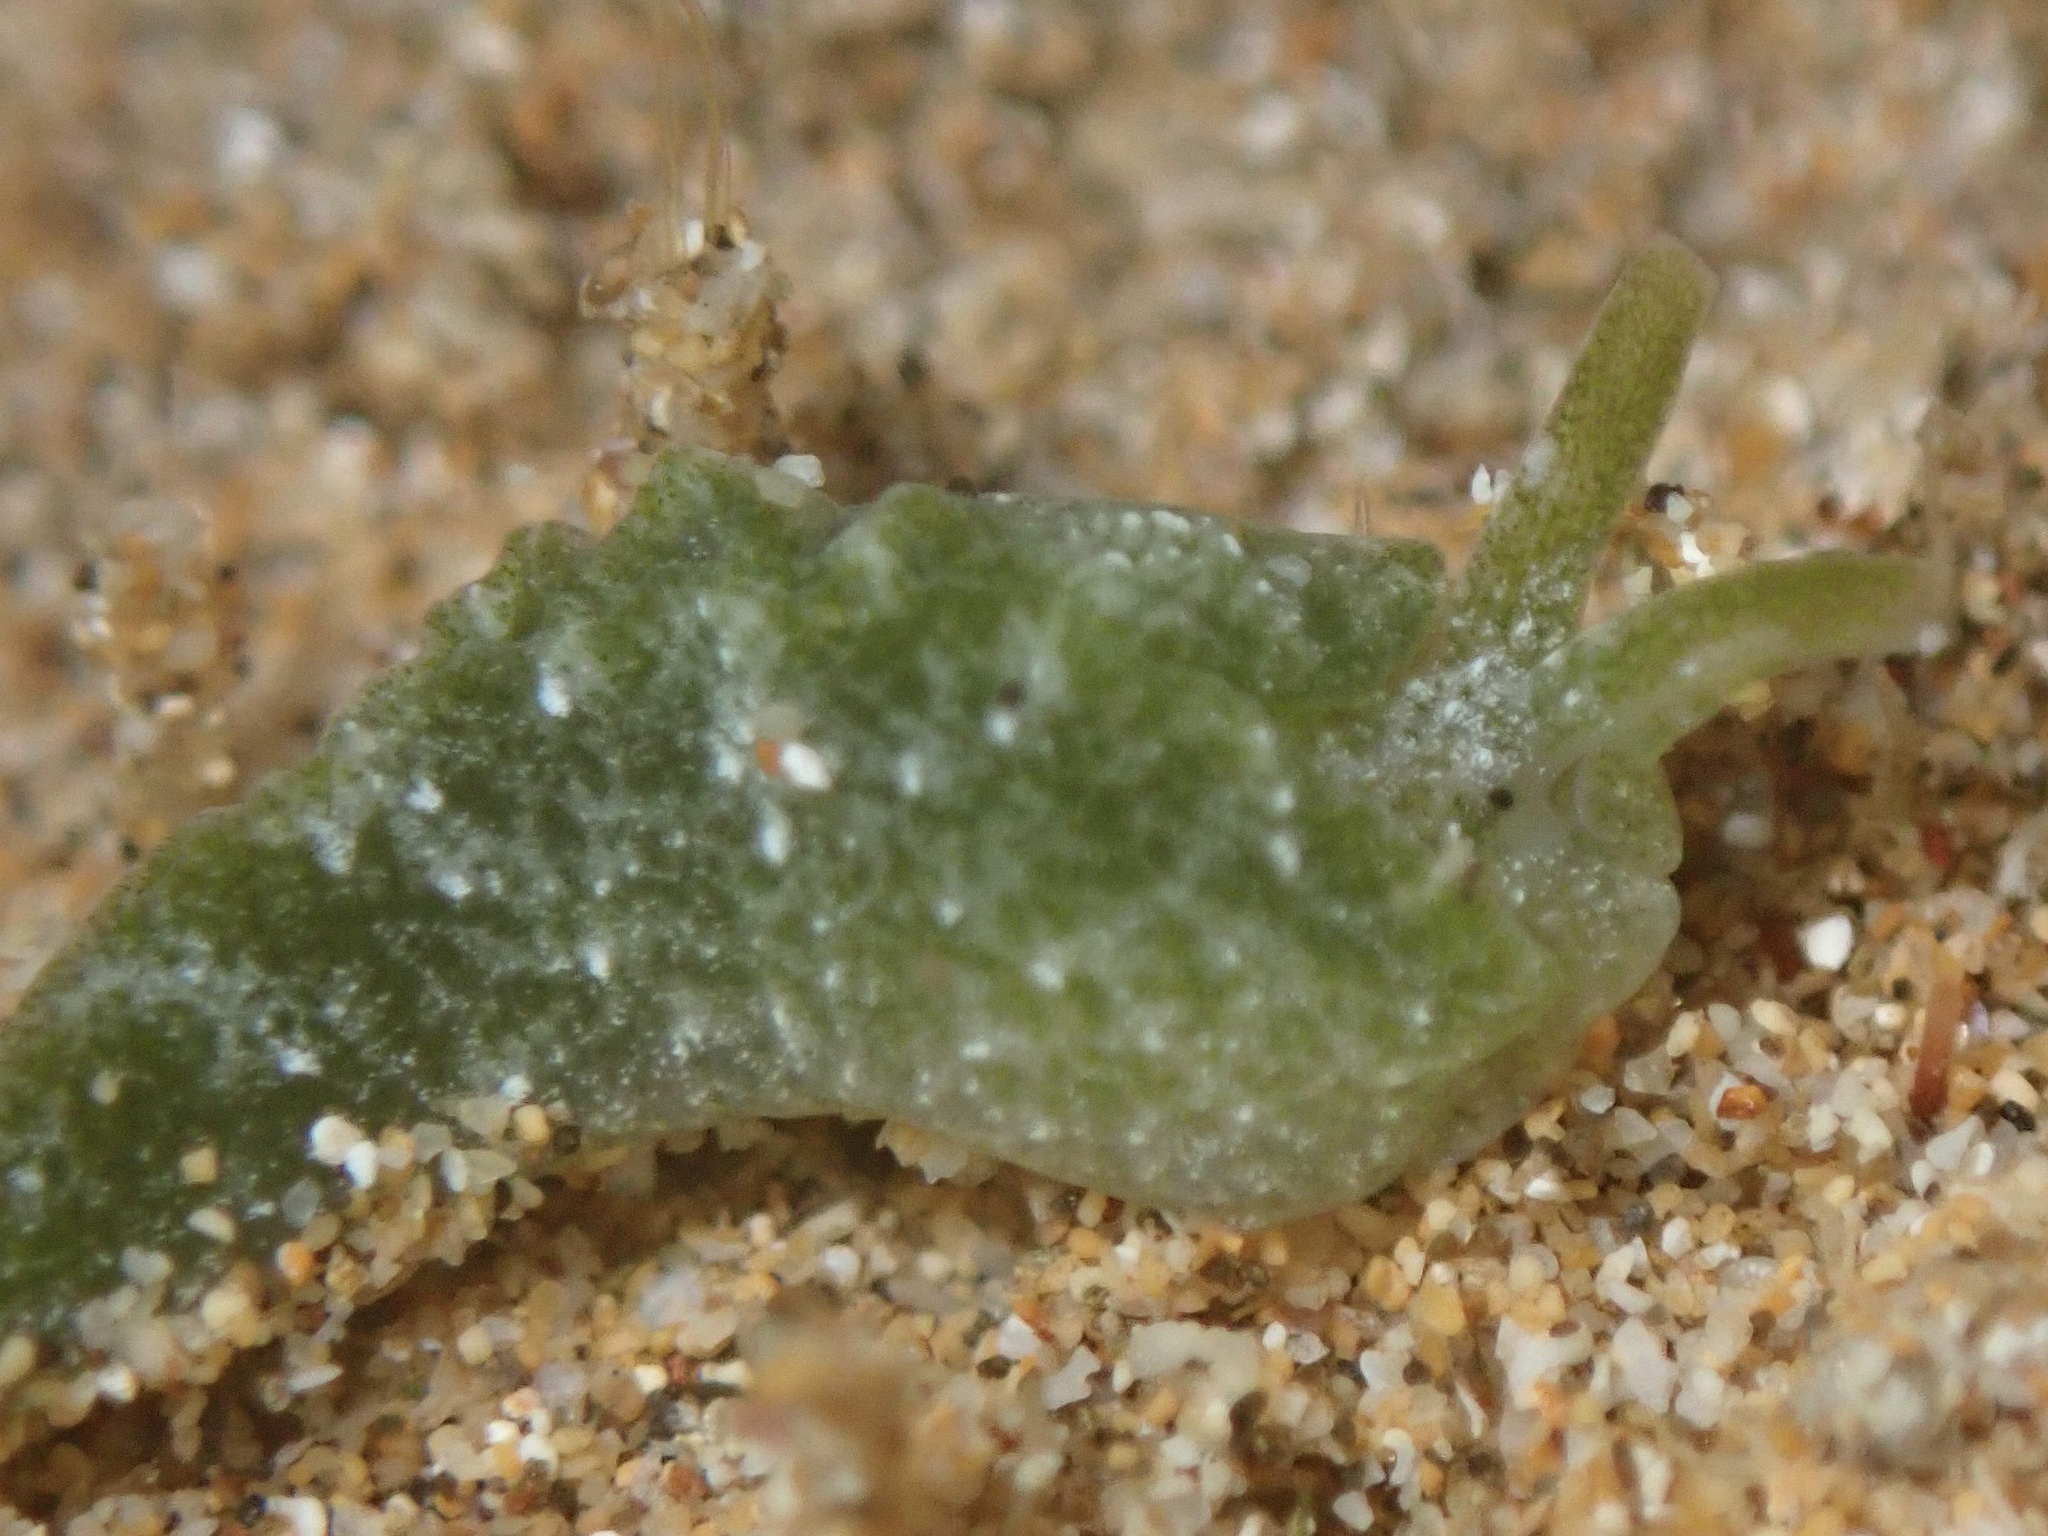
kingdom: Animalia
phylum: Mollusca
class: Gastropoda
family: Plakobranchidae
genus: Elysia
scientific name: Elysia nealae
